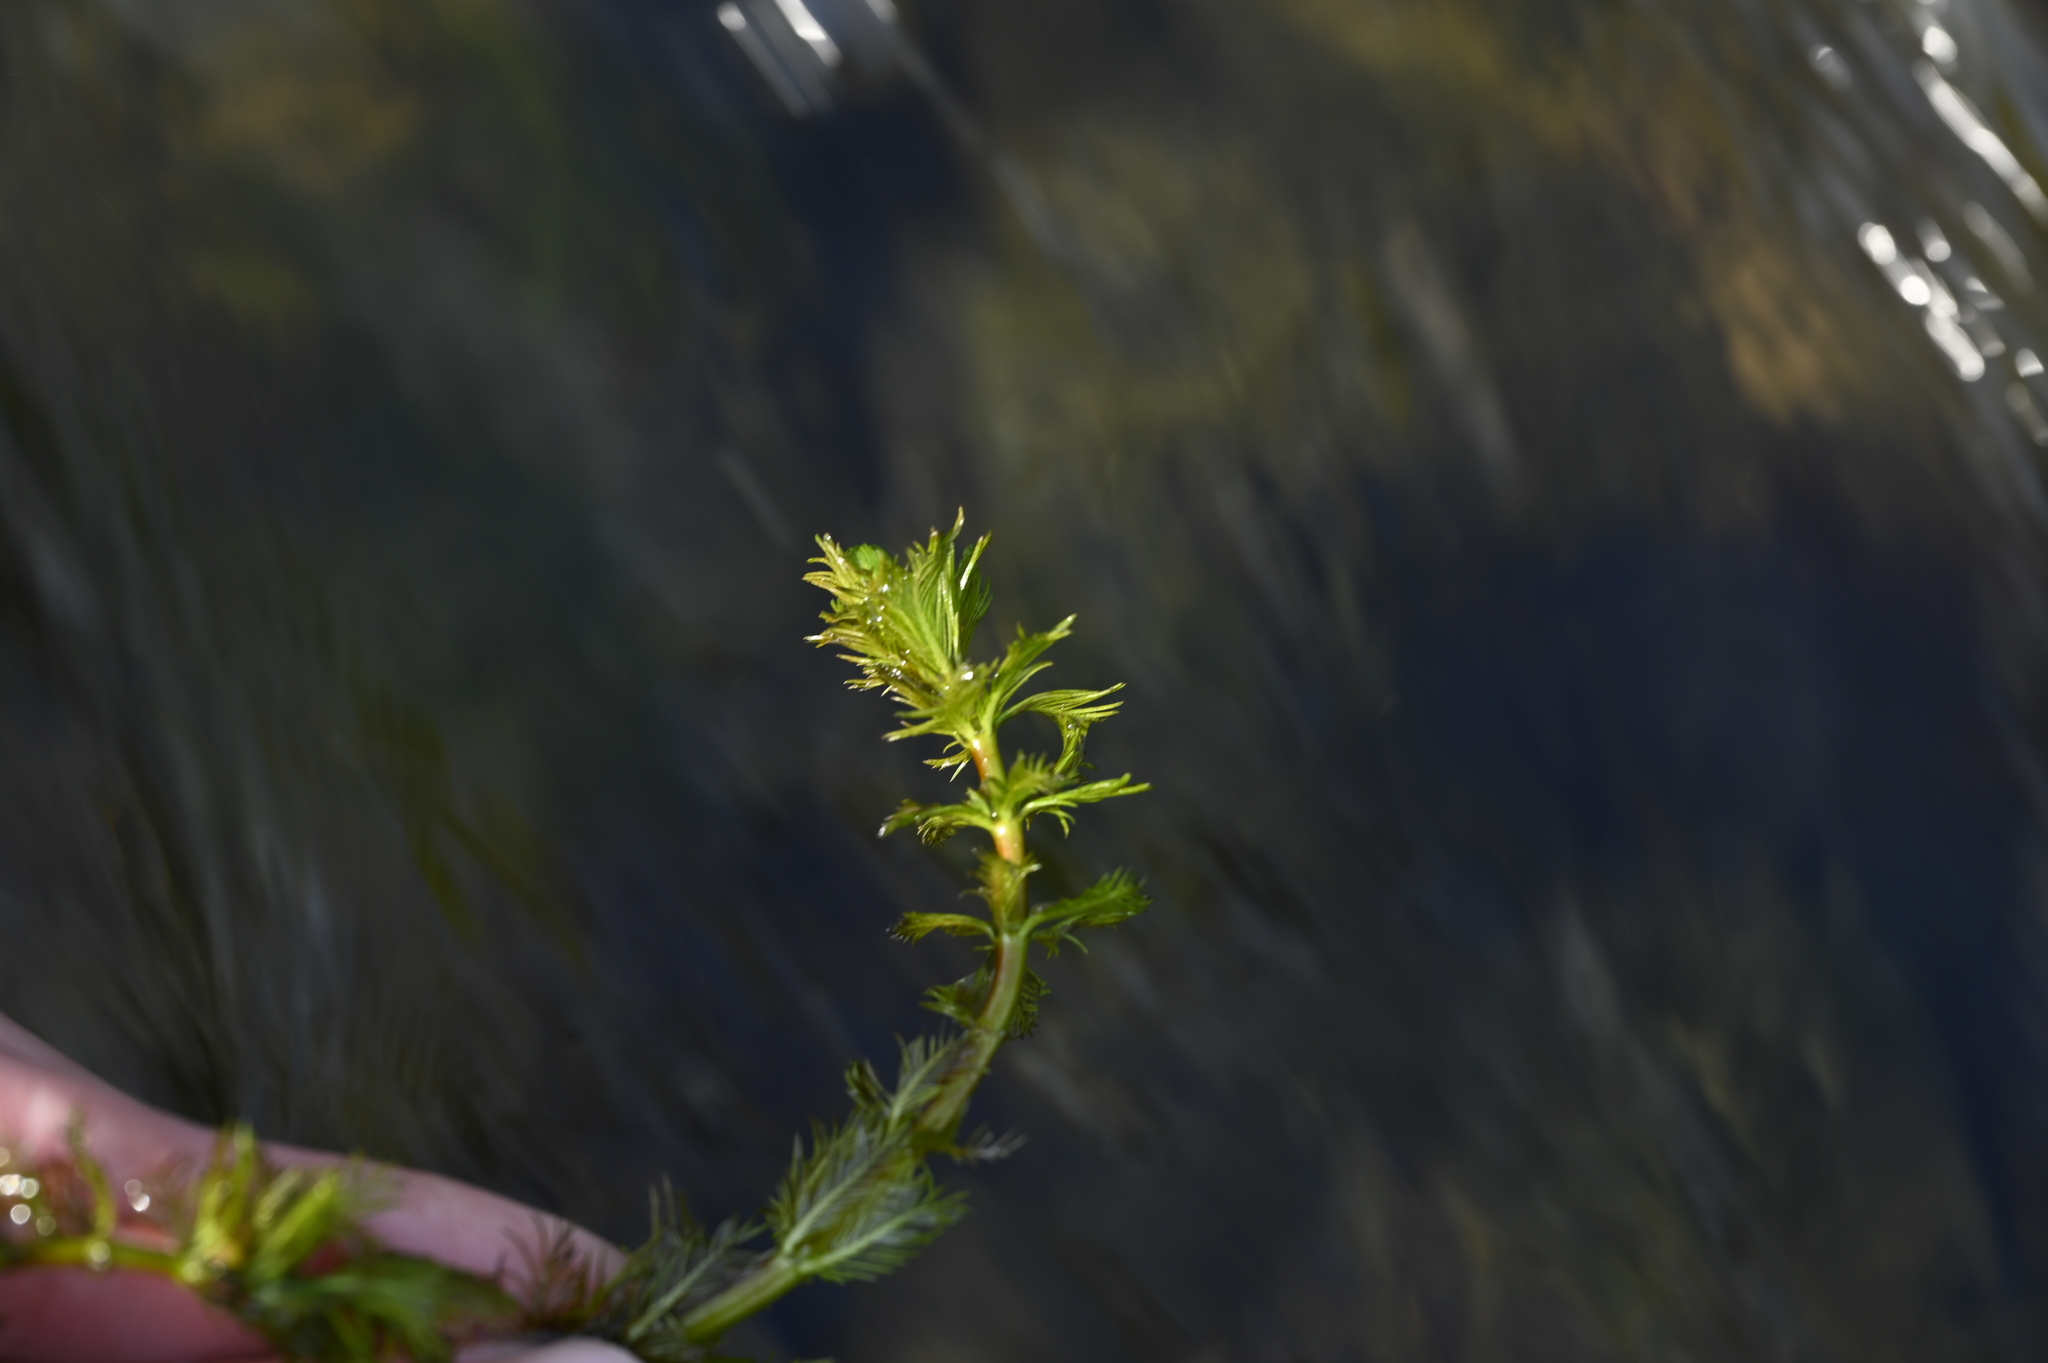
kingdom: Plantae
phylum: Tracheophyta
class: Magnoliopsida
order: Saxifragales
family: Haloragaceae
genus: Myriophyllum
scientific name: Myriophyllum aquaticum
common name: Parrot's feather
